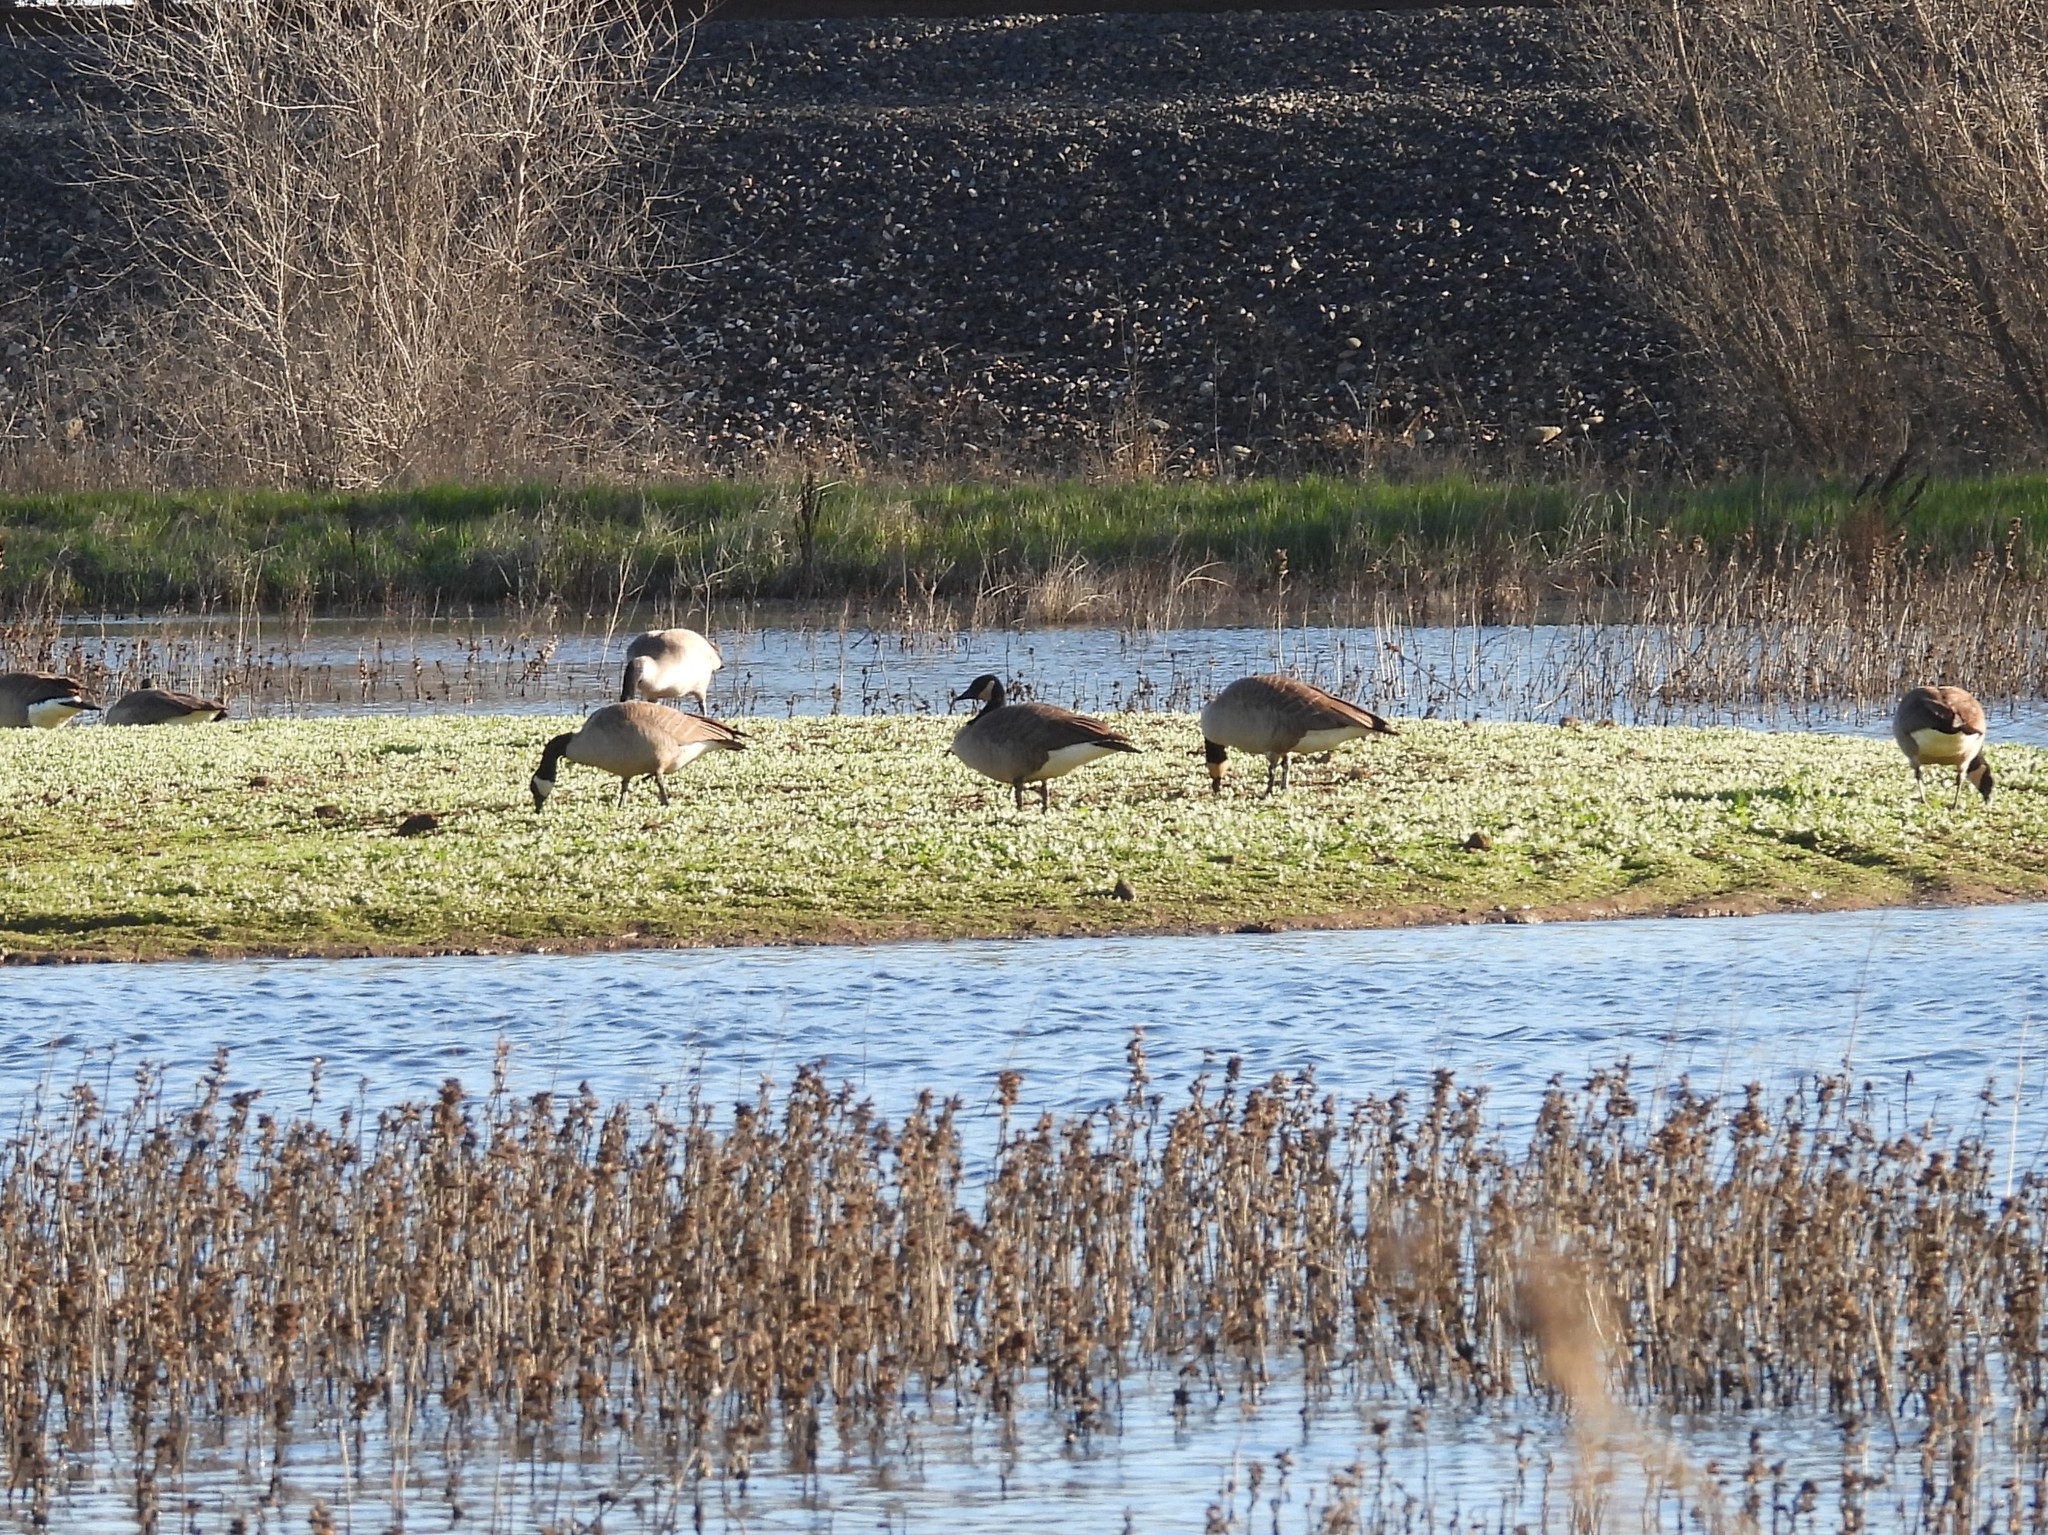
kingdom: Animalia
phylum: Chordata
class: Aves
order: Anseriformes
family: Anatidae
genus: Branta
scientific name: Branta canadensis
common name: Canada goose
